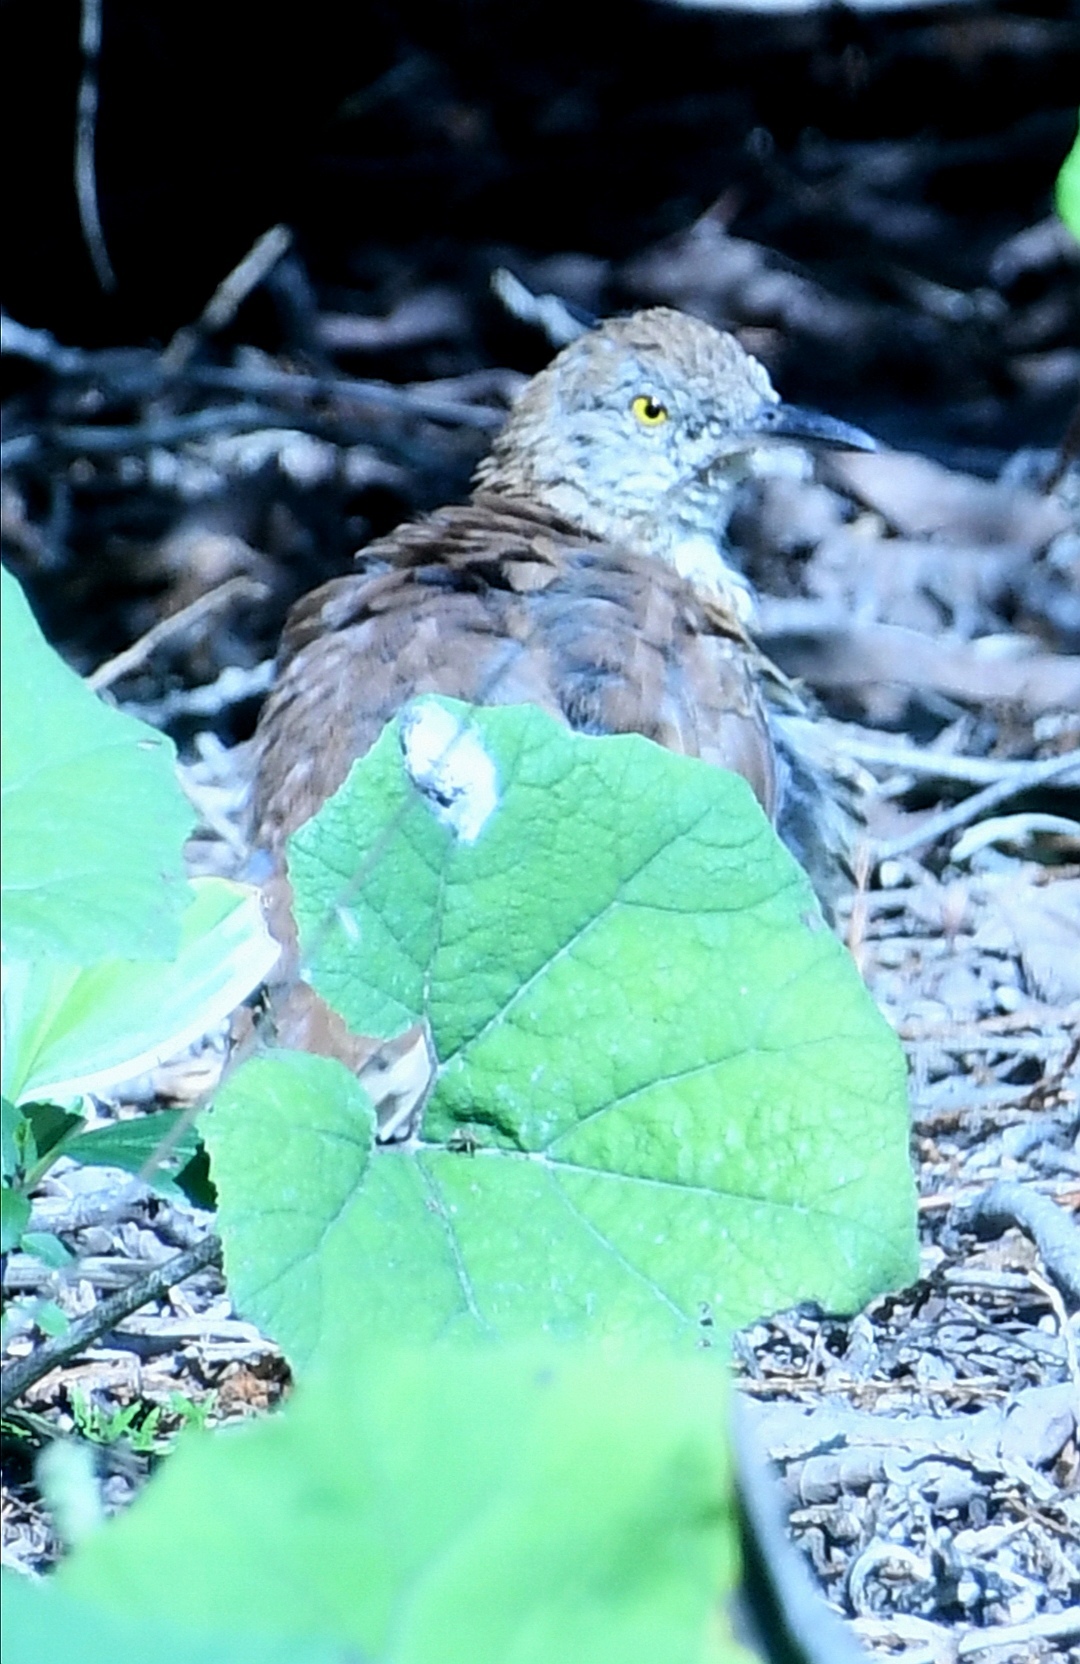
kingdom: Animalia
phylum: Chordata
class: Aves
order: Passeriformes
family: Mimidae
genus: Toxostoma
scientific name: Toxostoma rufum
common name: Brown thrasher
